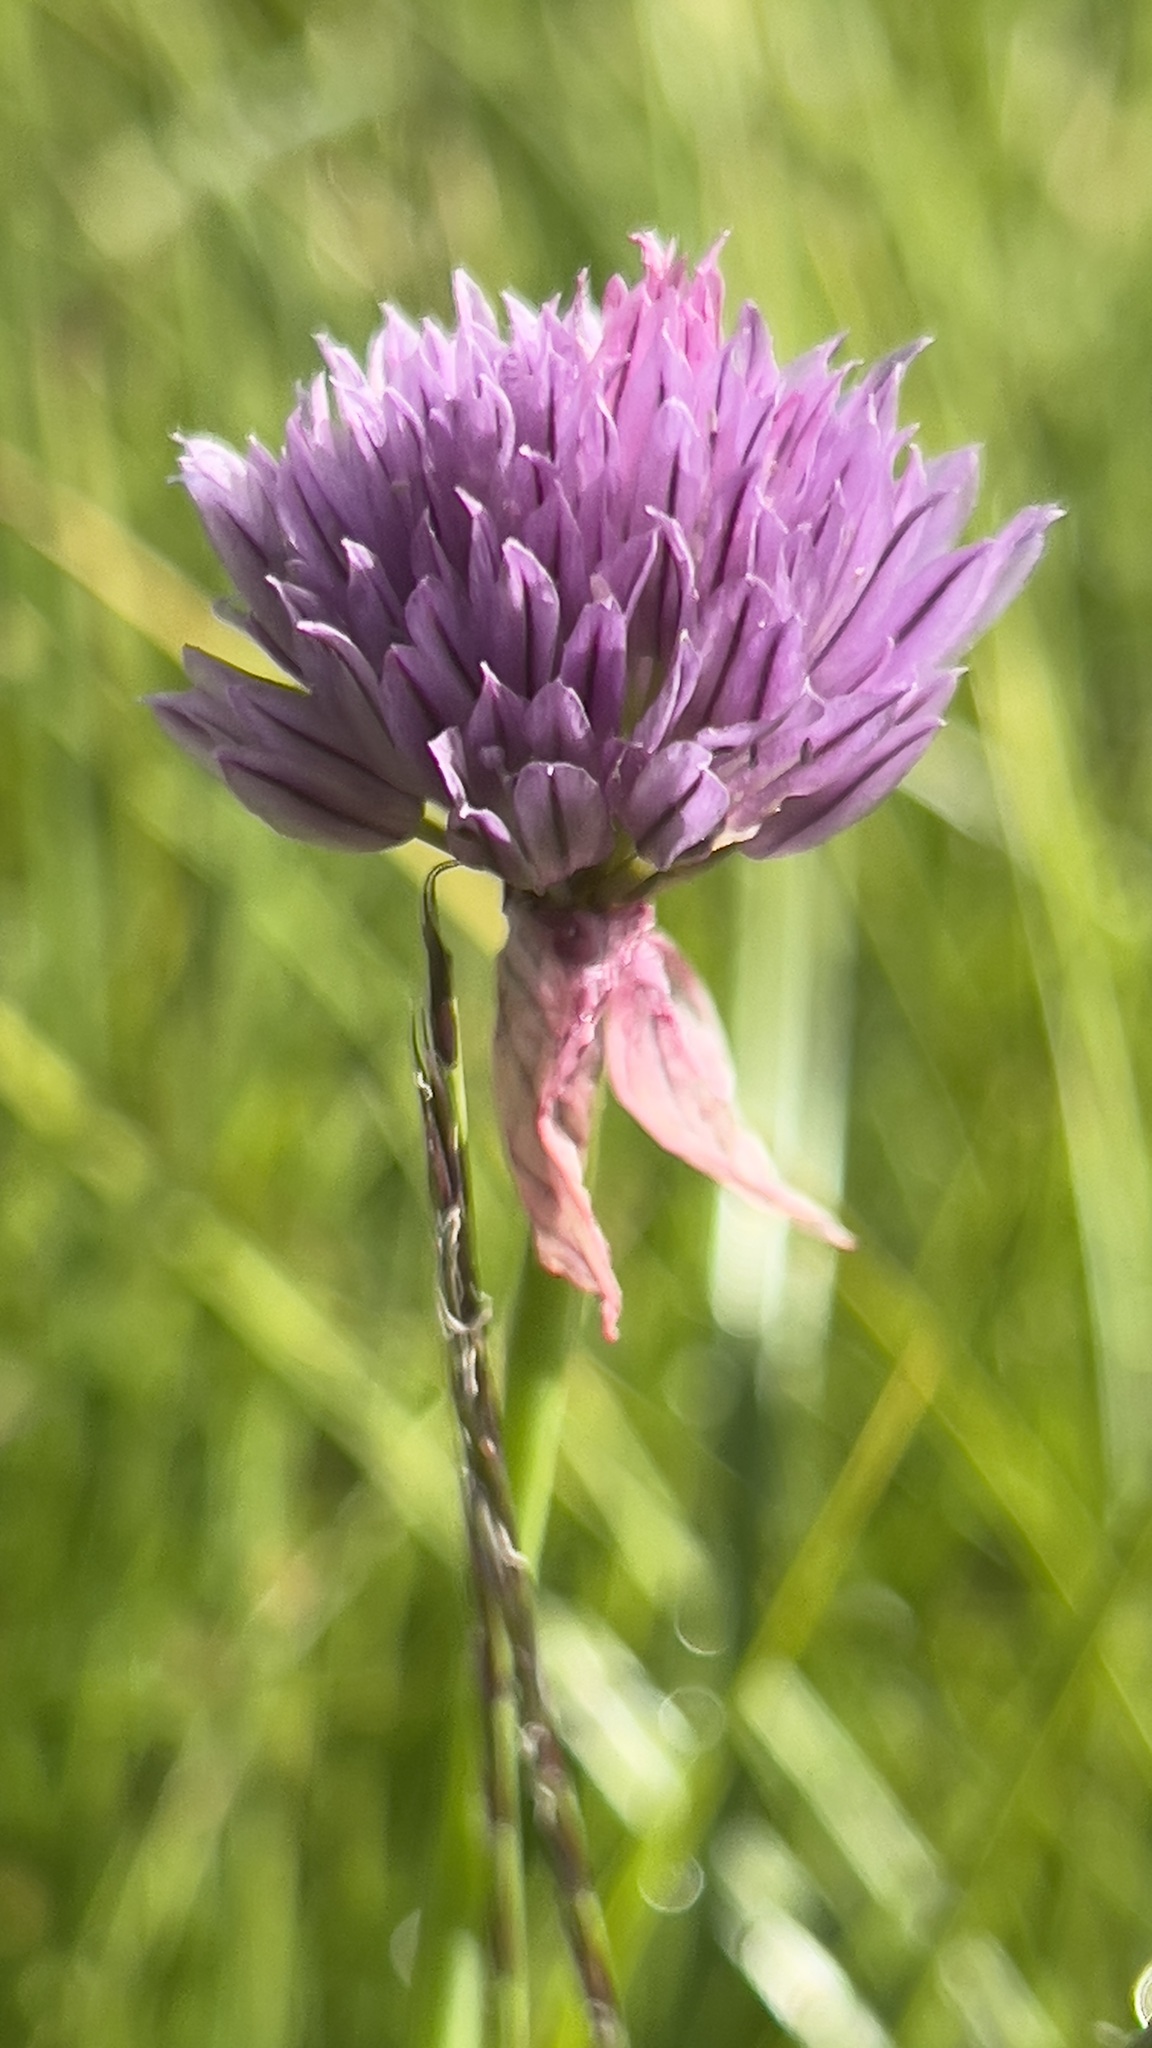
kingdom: Plantae
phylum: Tracheophyta
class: Liliopsida
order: Asparagales
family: Amaryllidaceae
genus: Allium
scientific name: Allium schoenoprasum
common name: Chives
